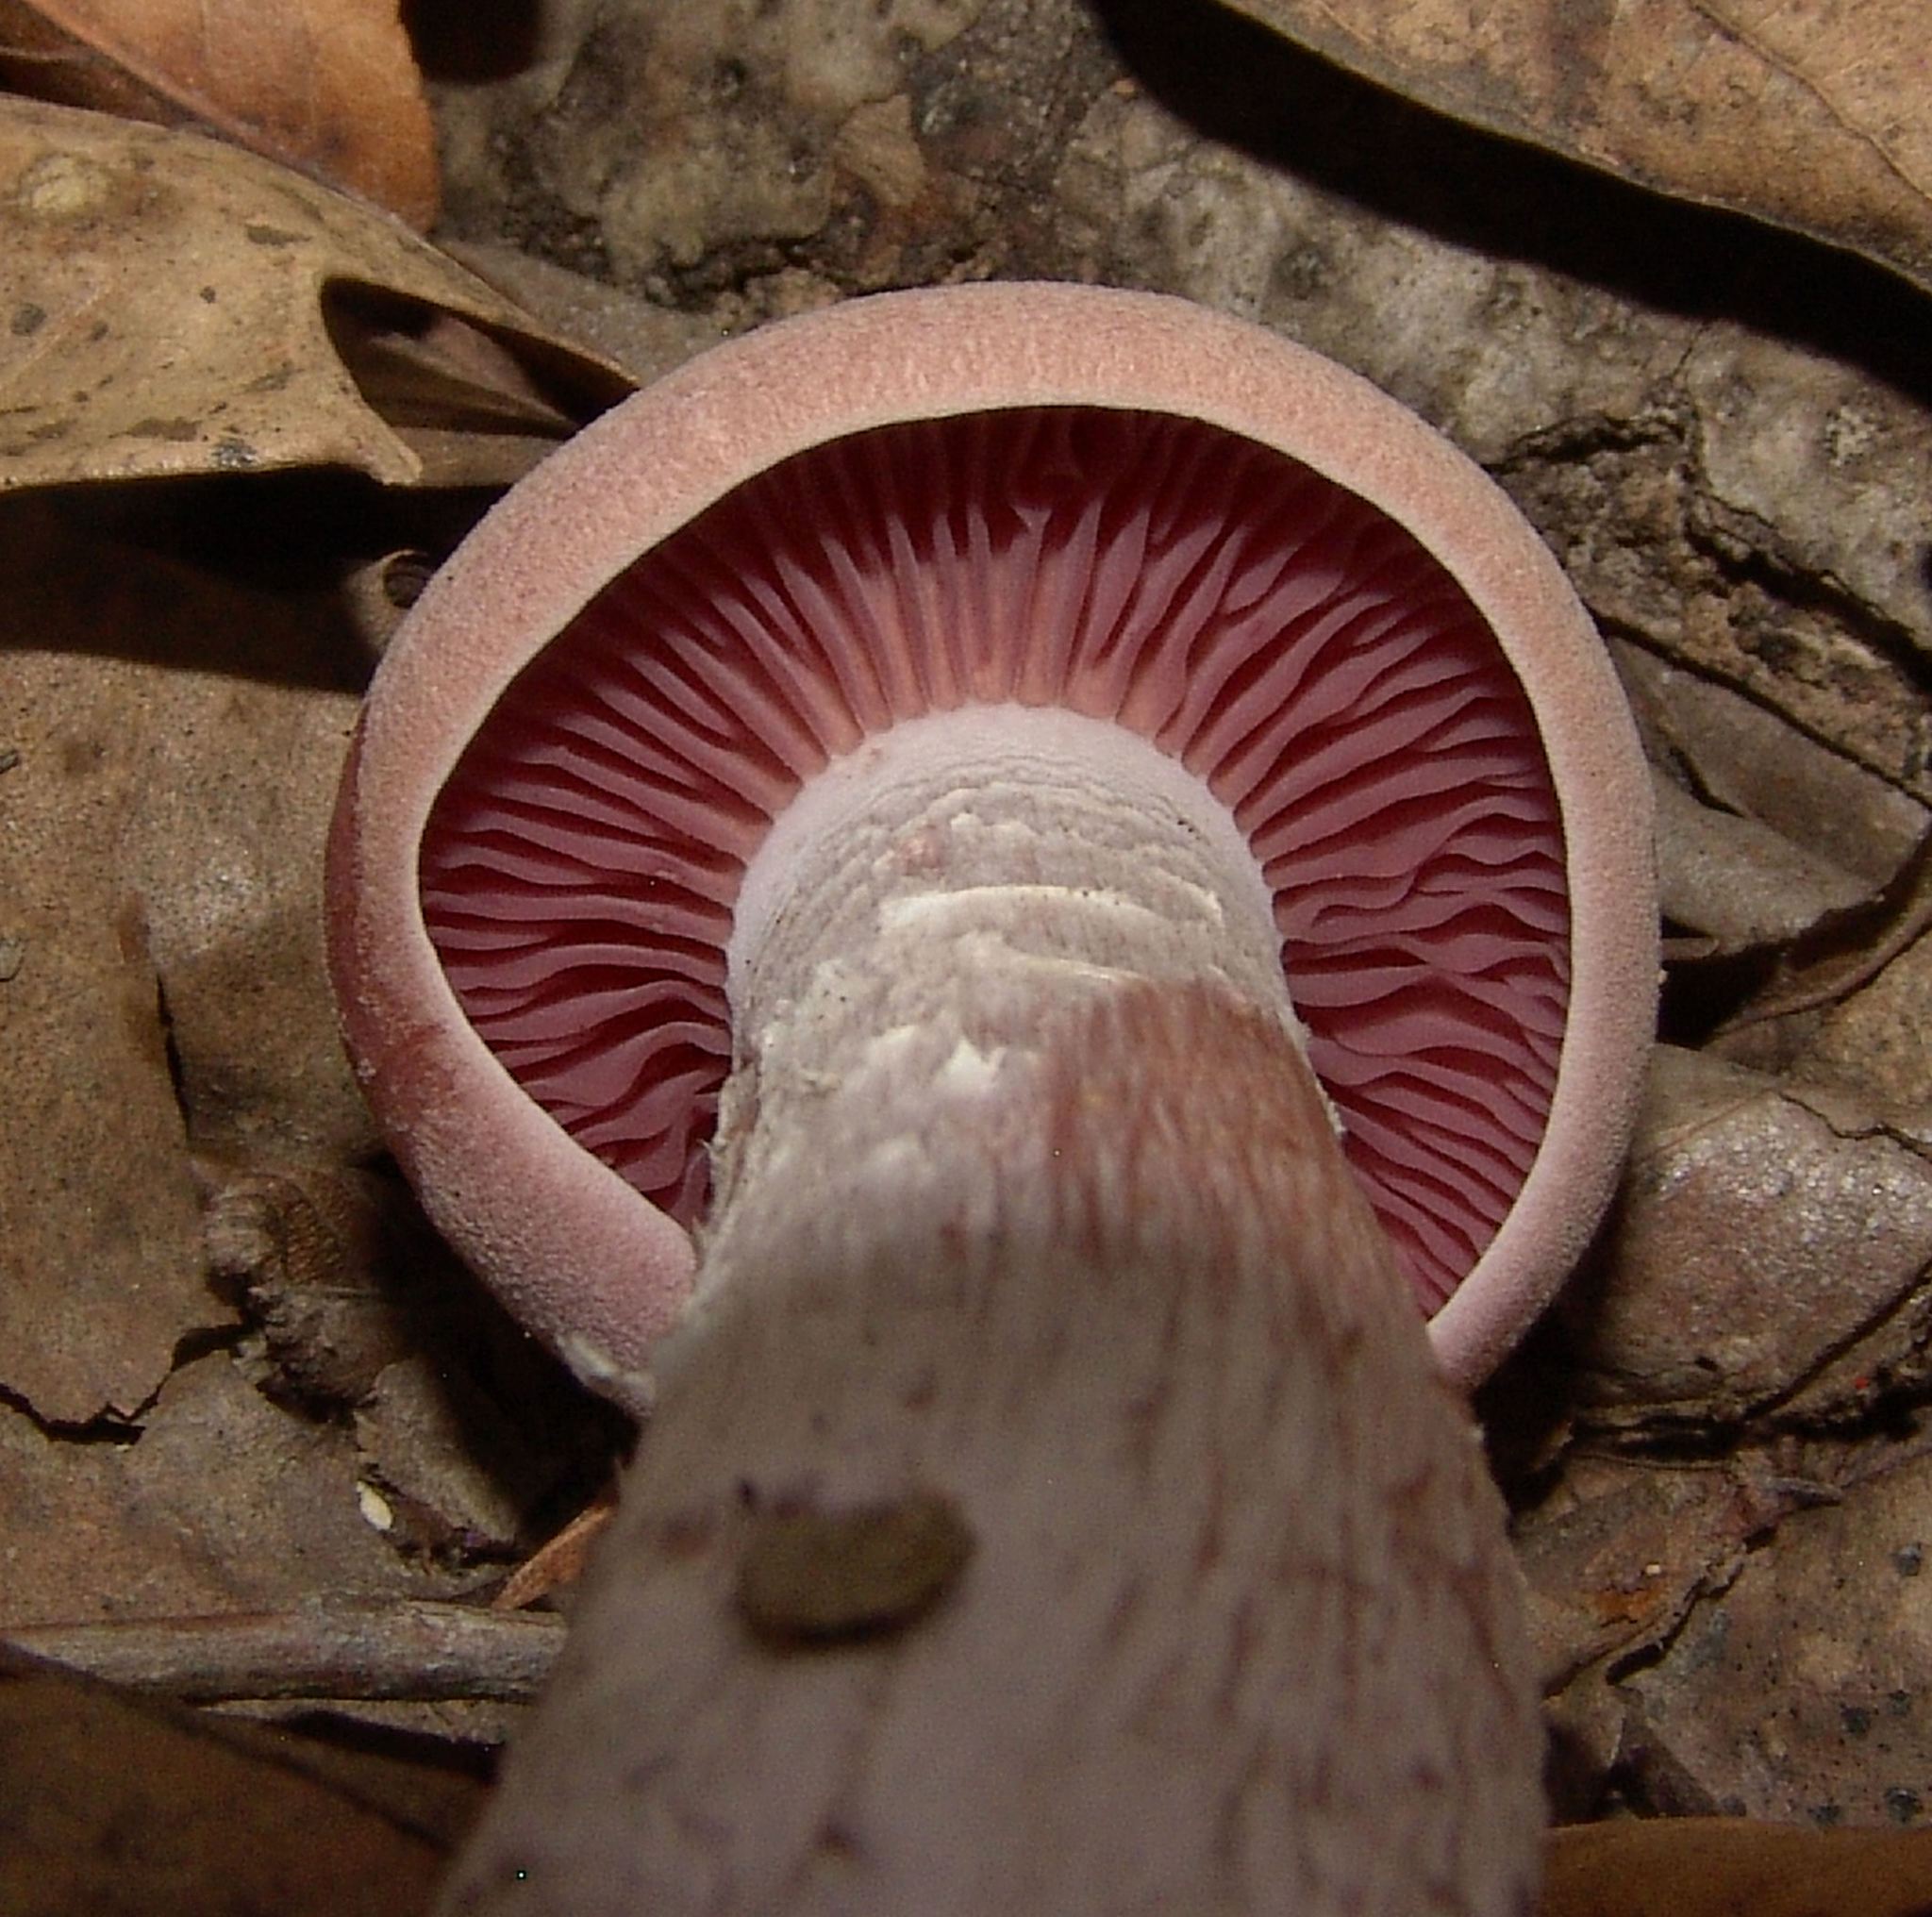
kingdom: Fungi
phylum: Basidiomycota
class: Agaricomycetes
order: Agaricales
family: Hydnangiaceae
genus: Laccaria
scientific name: Laccaria ochropurpurea
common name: Purple laccaria
